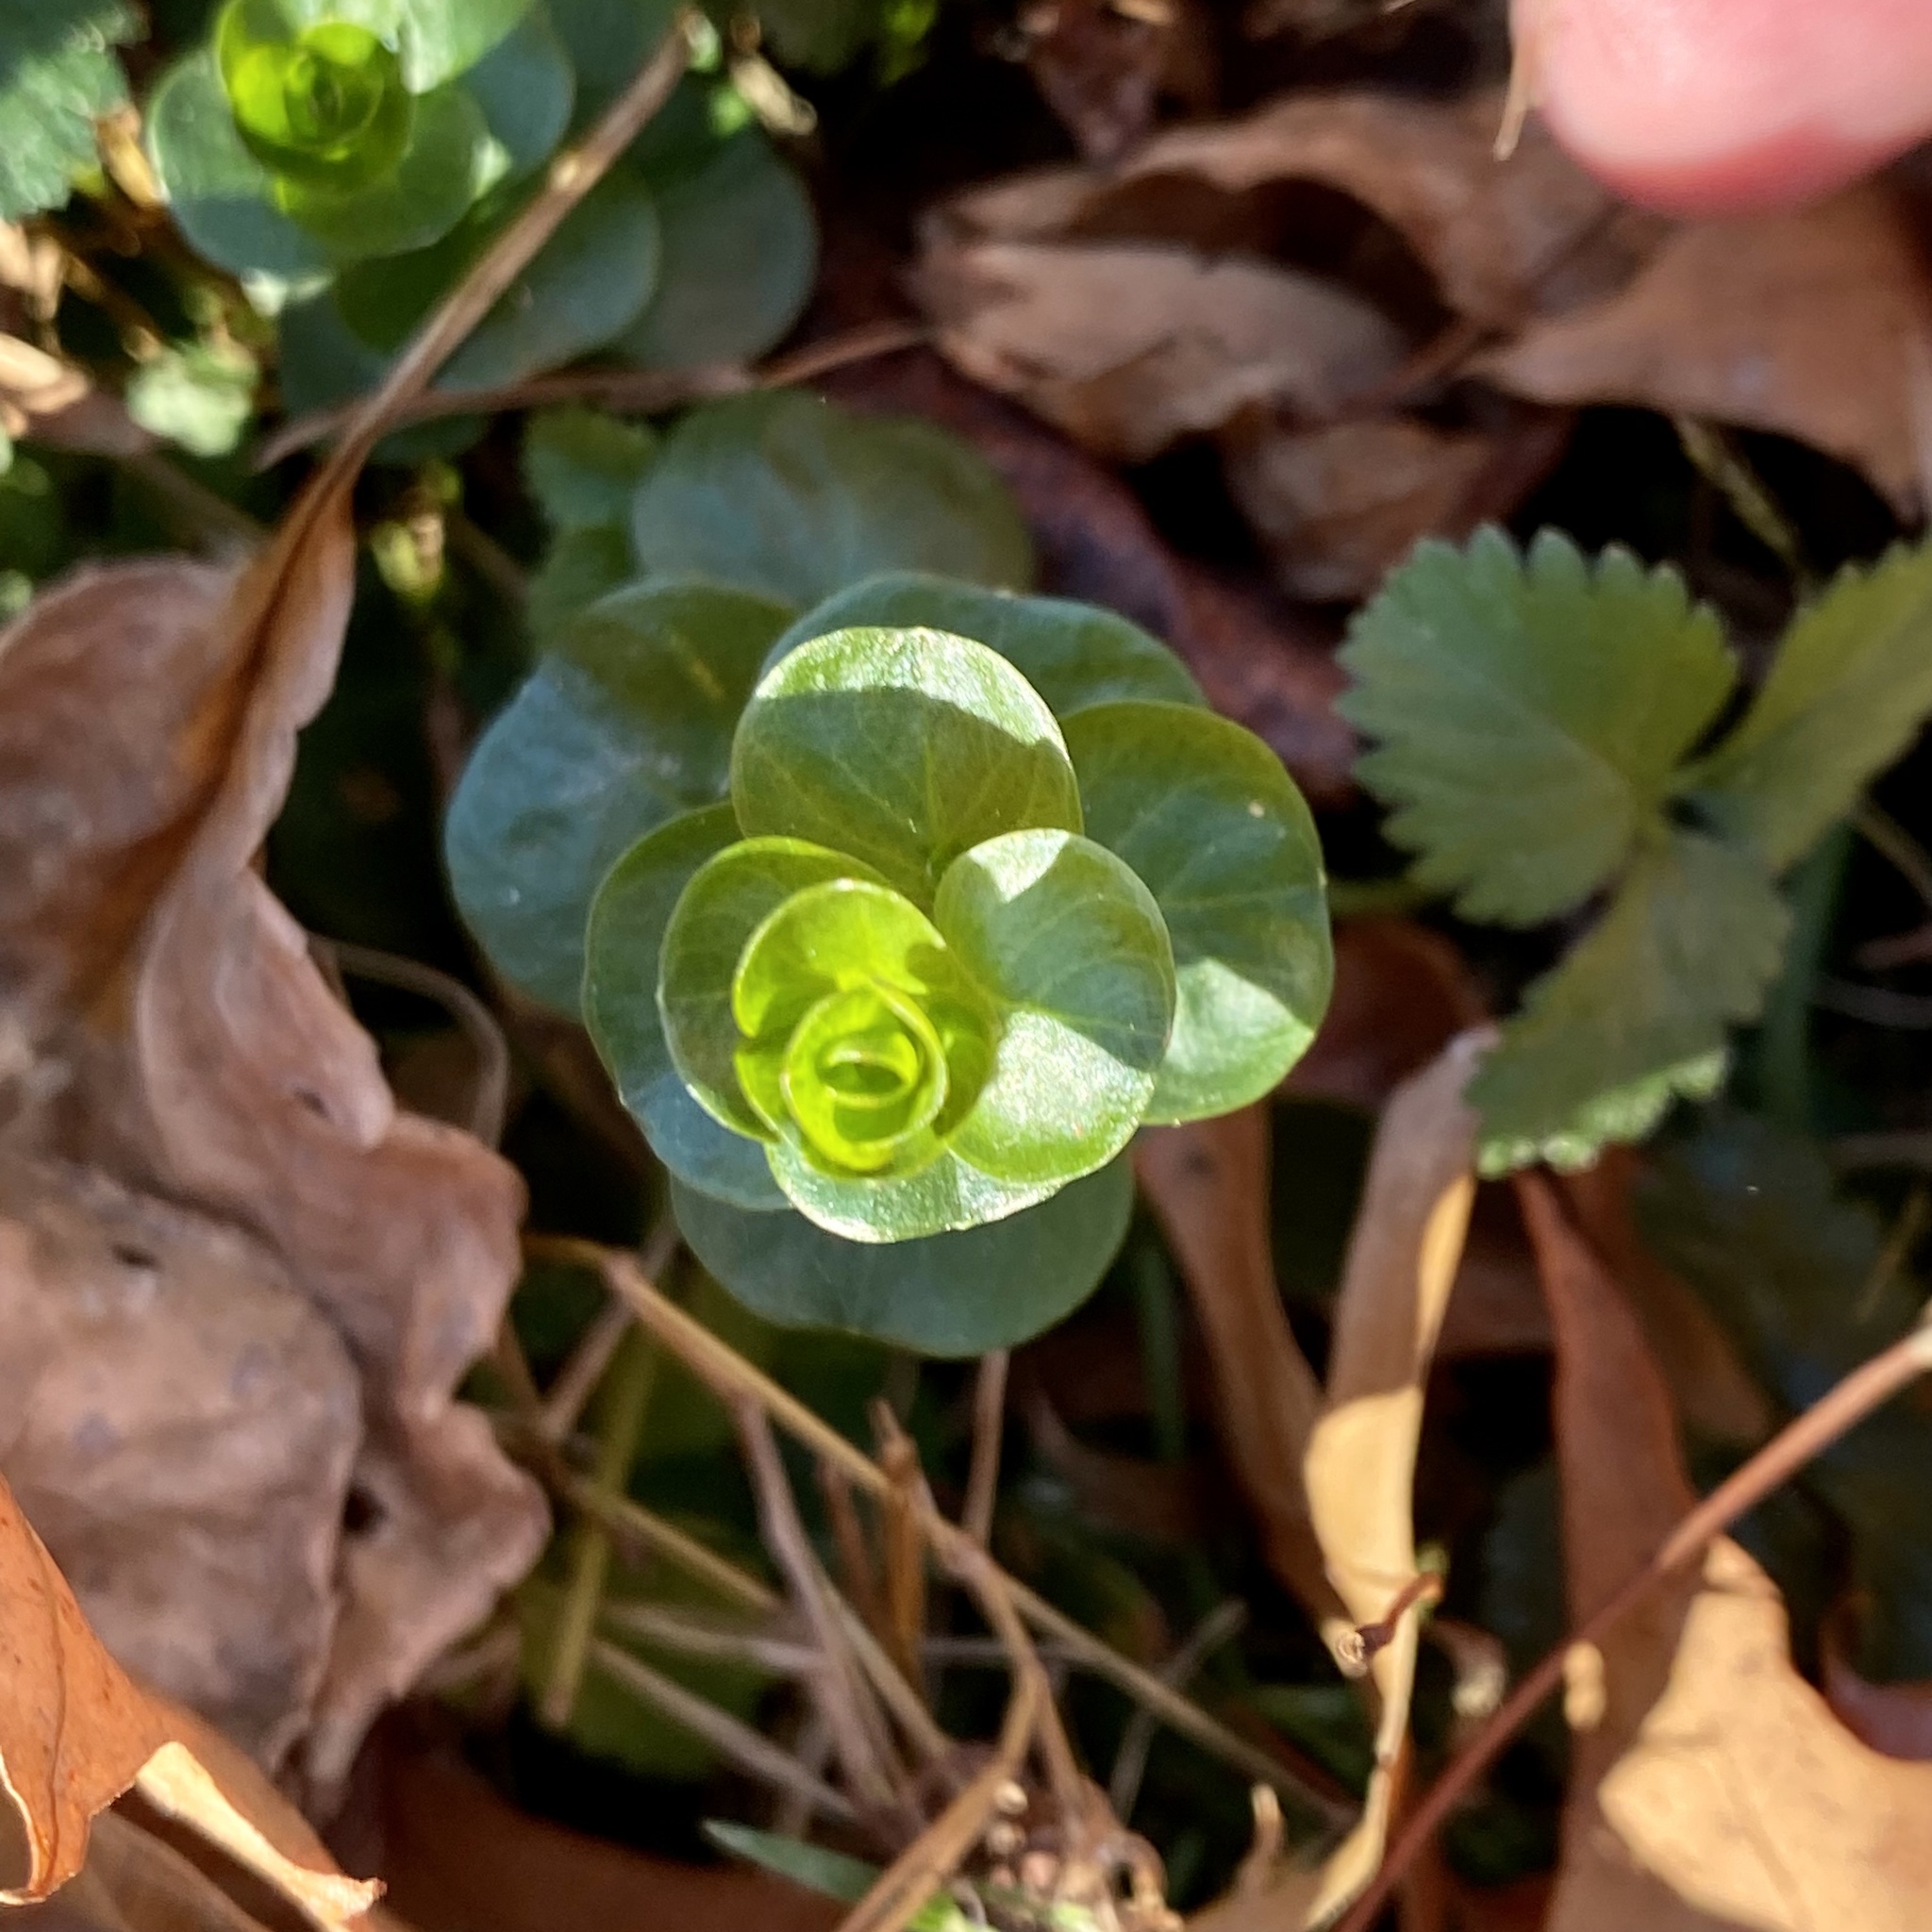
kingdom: Plantae
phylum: Tracheophyta
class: Magnoliopsida
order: Ericales
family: Primulaceae
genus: Lysimachia
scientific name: Lysimachia nummularia
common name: Moneywort
